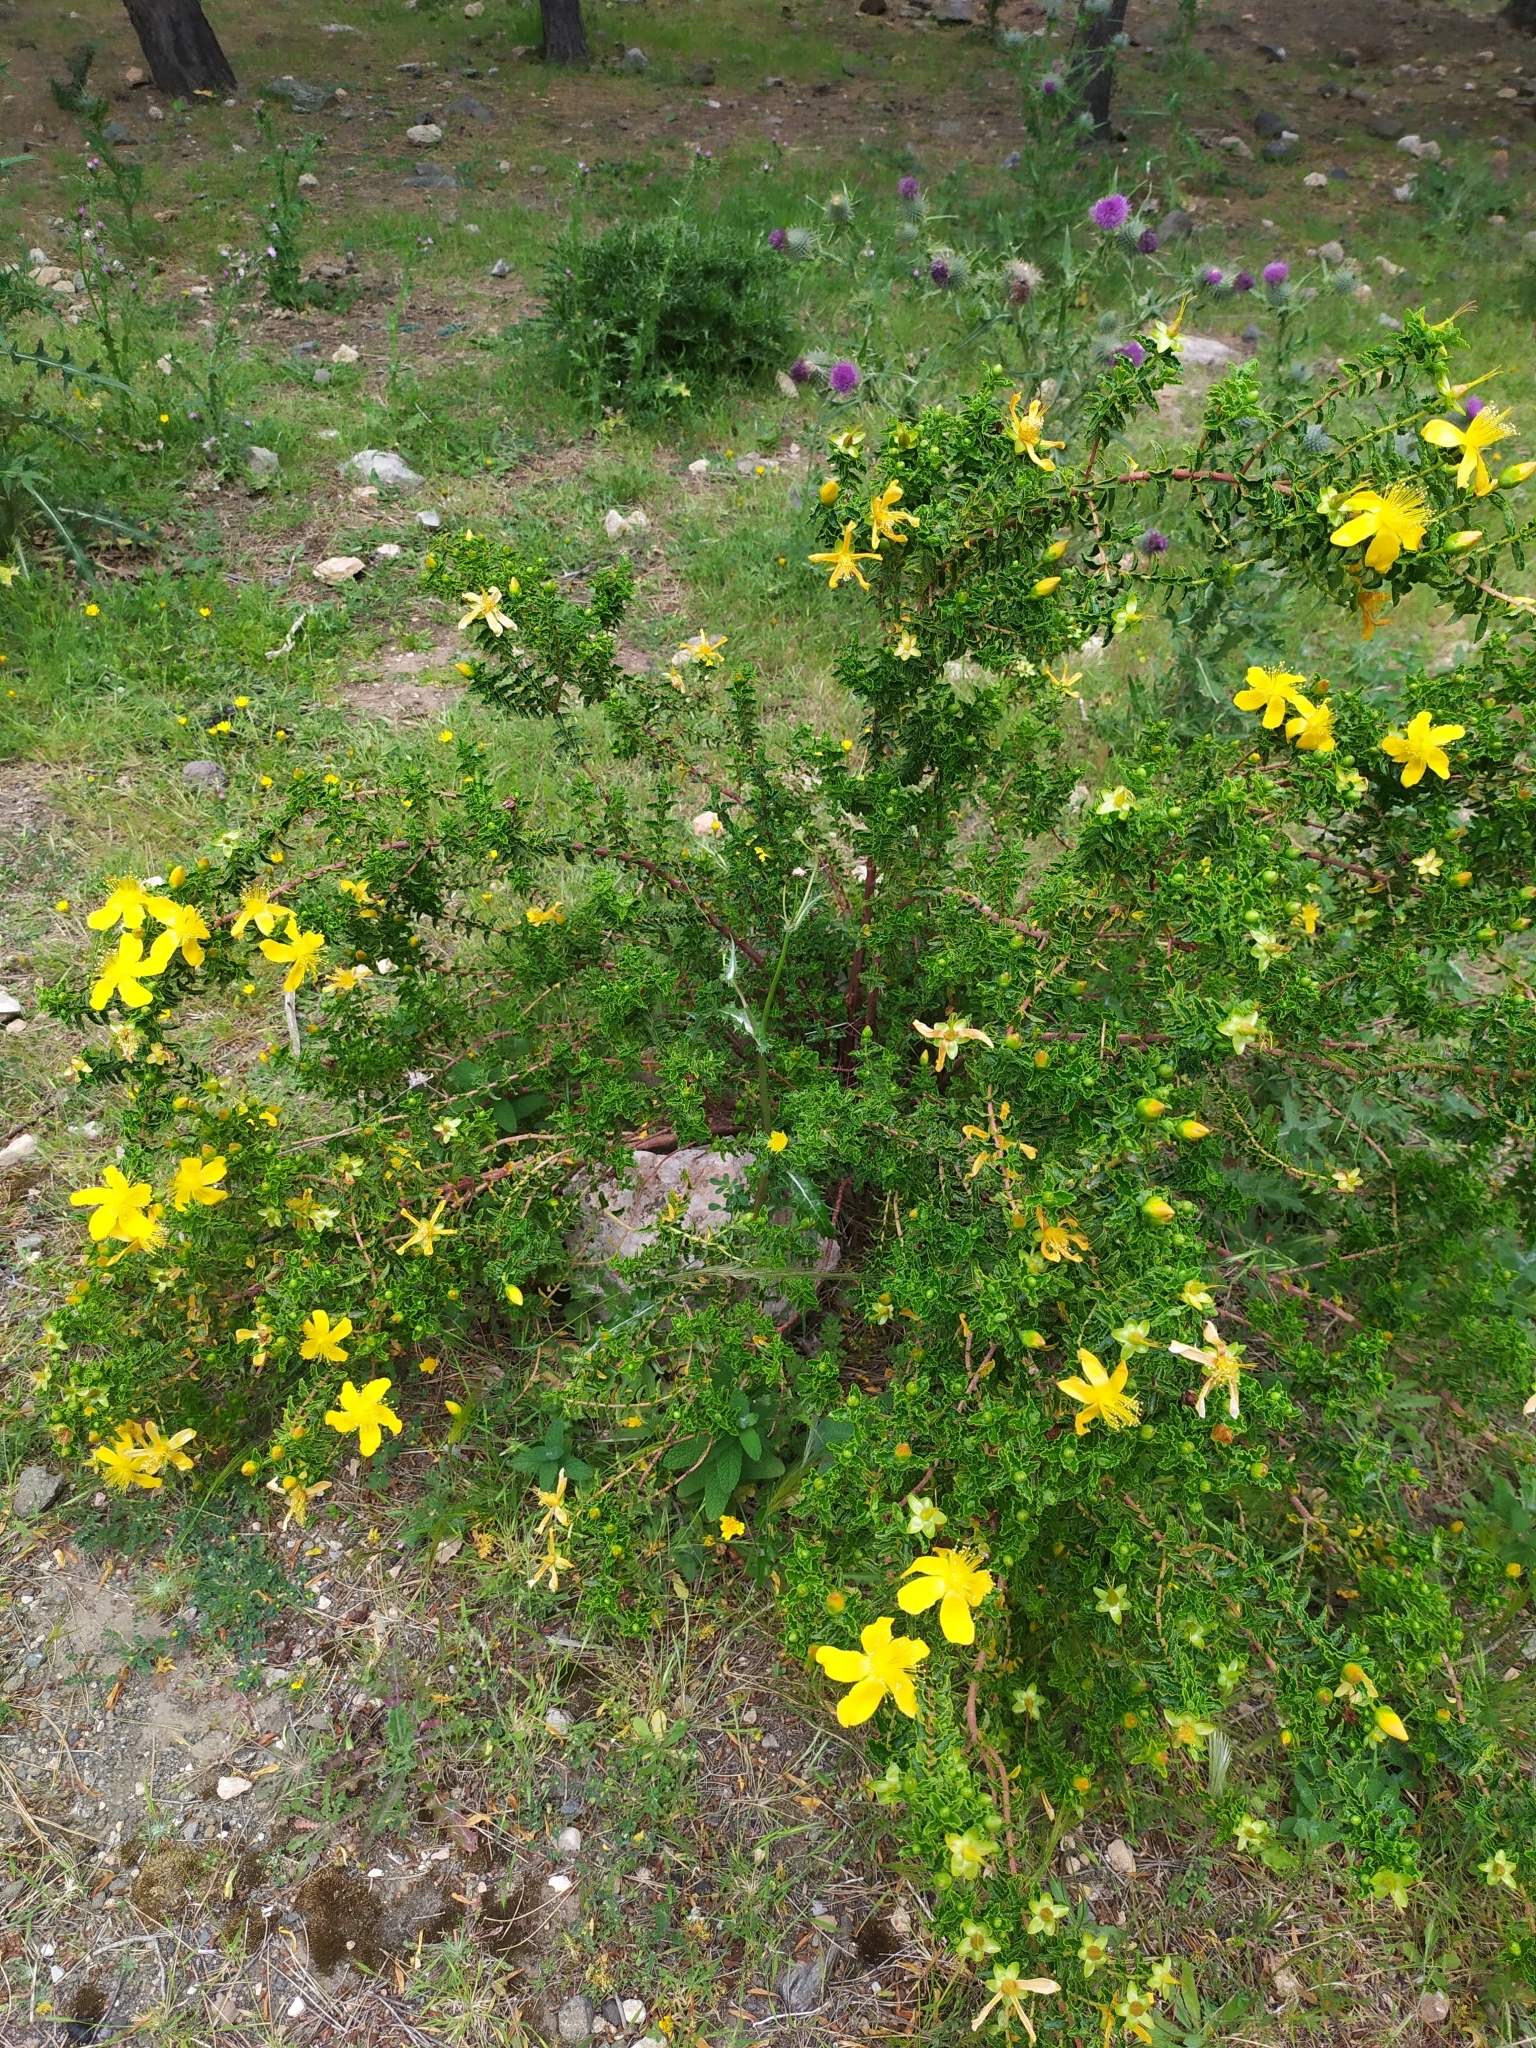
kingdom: Plantae
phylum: Tracheophyta
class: Magnoliopsida
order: Malpighiales
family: Hypericaceae
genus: Hypericum
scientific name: Hypericum balearicum
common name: Majorca st john's wort
